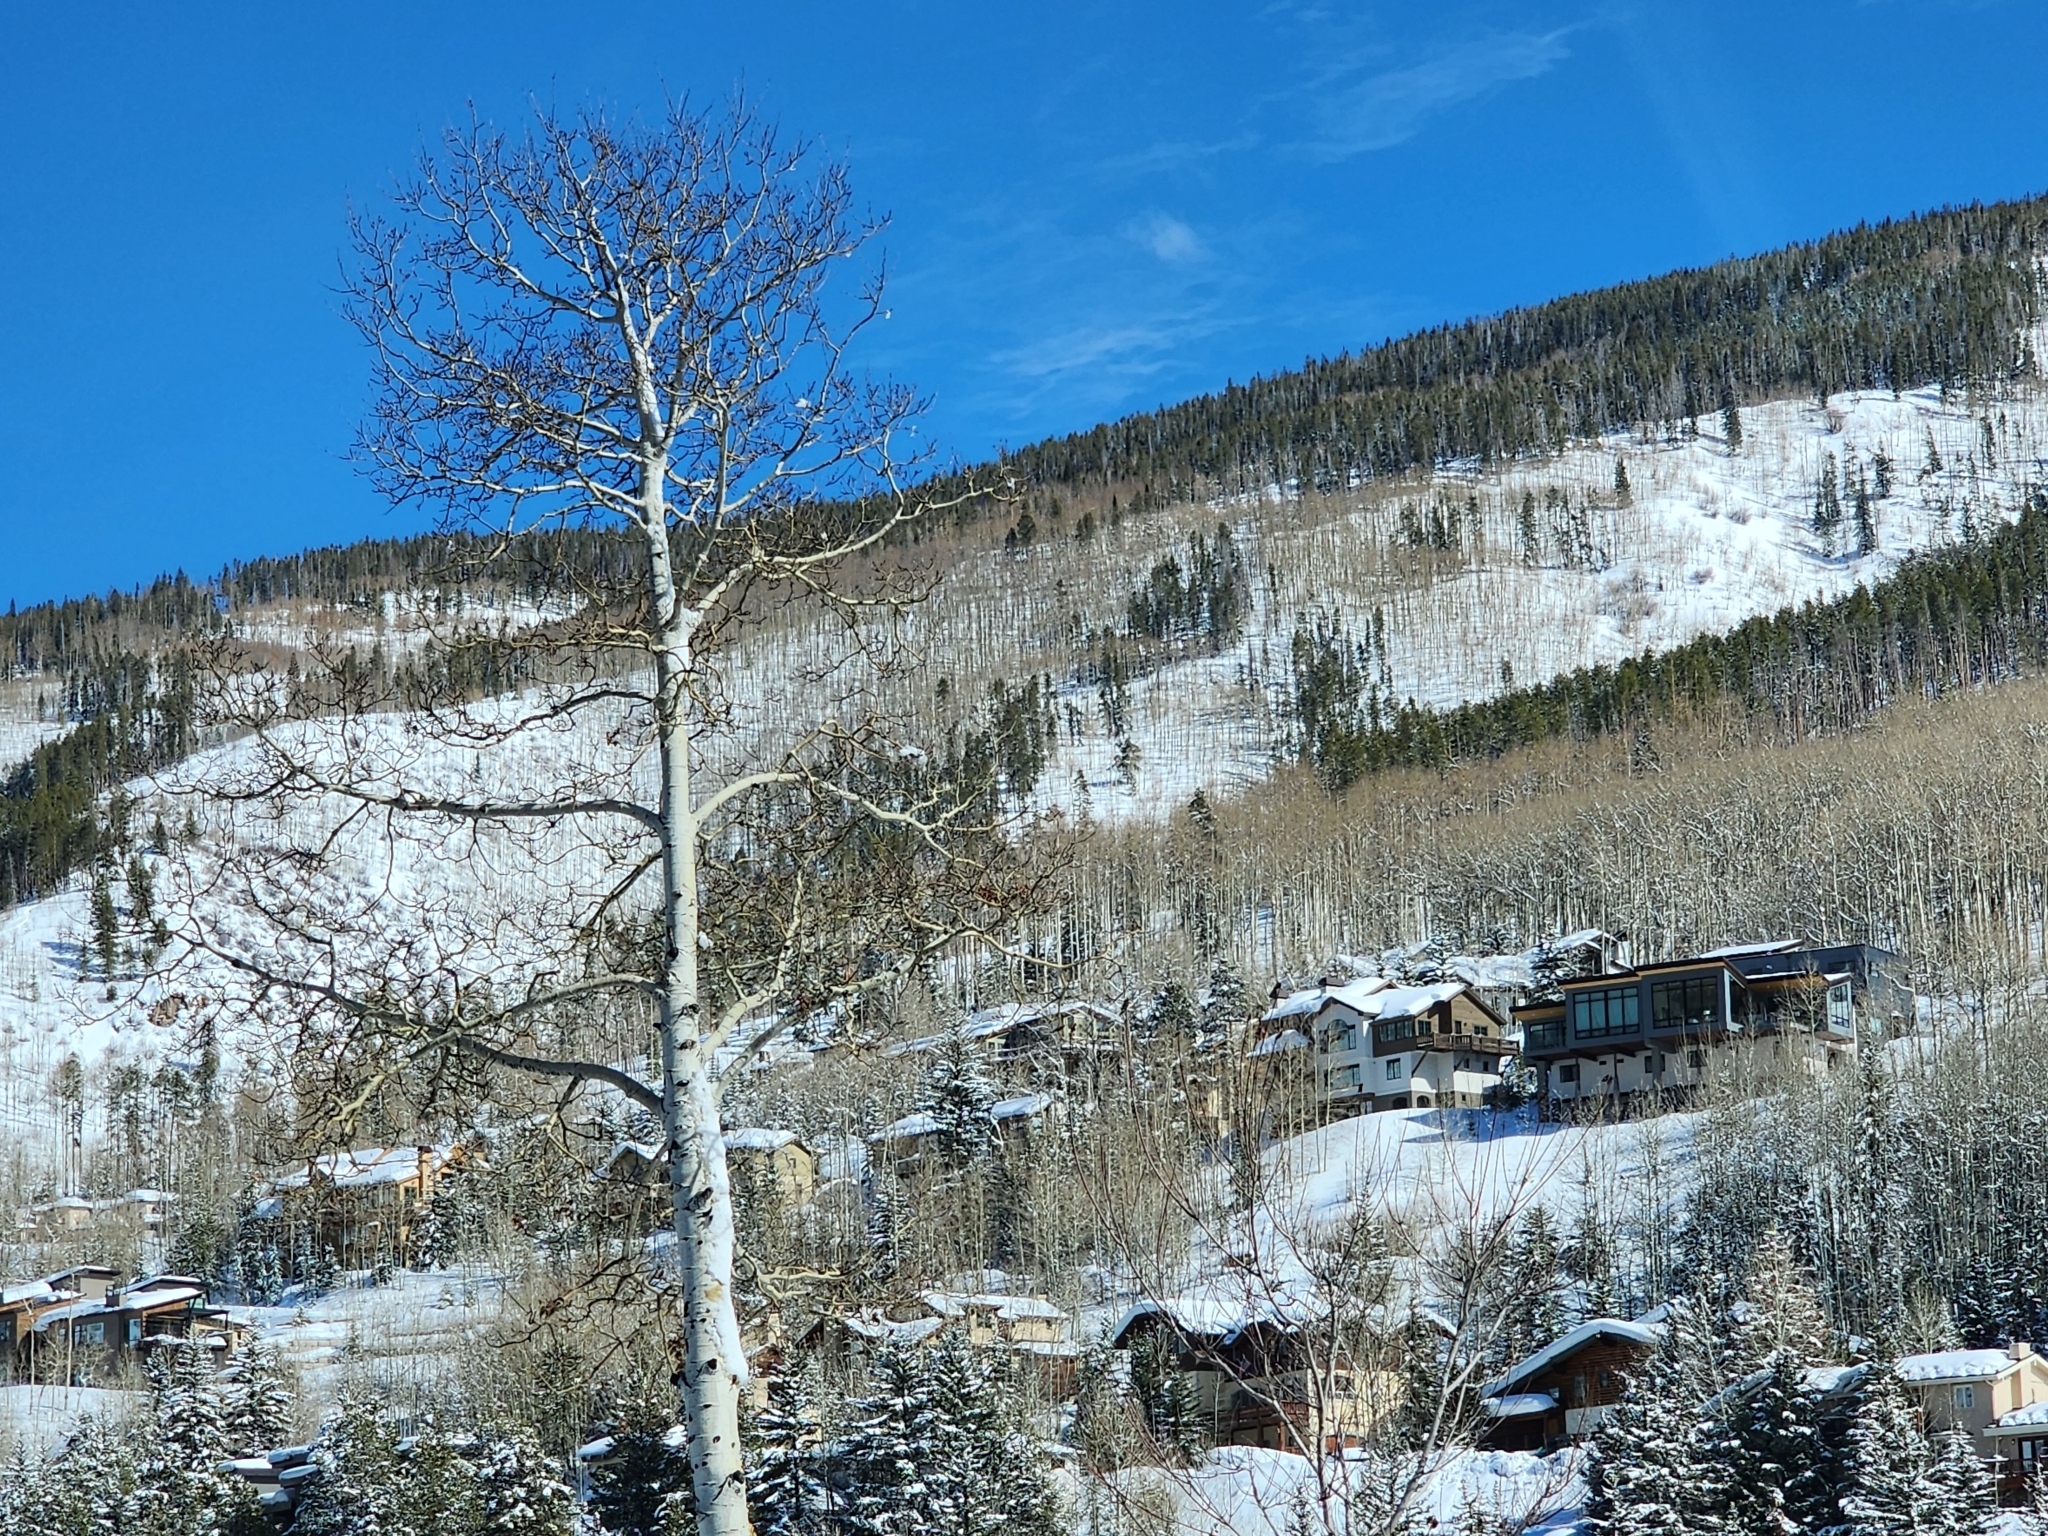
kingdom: Plantae
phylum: Tracheophyta
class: Magnoliopsida
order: Malpighiales
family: Salicaceae
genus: Populus
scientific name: Populus tremuloides
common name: Quaking aspen
